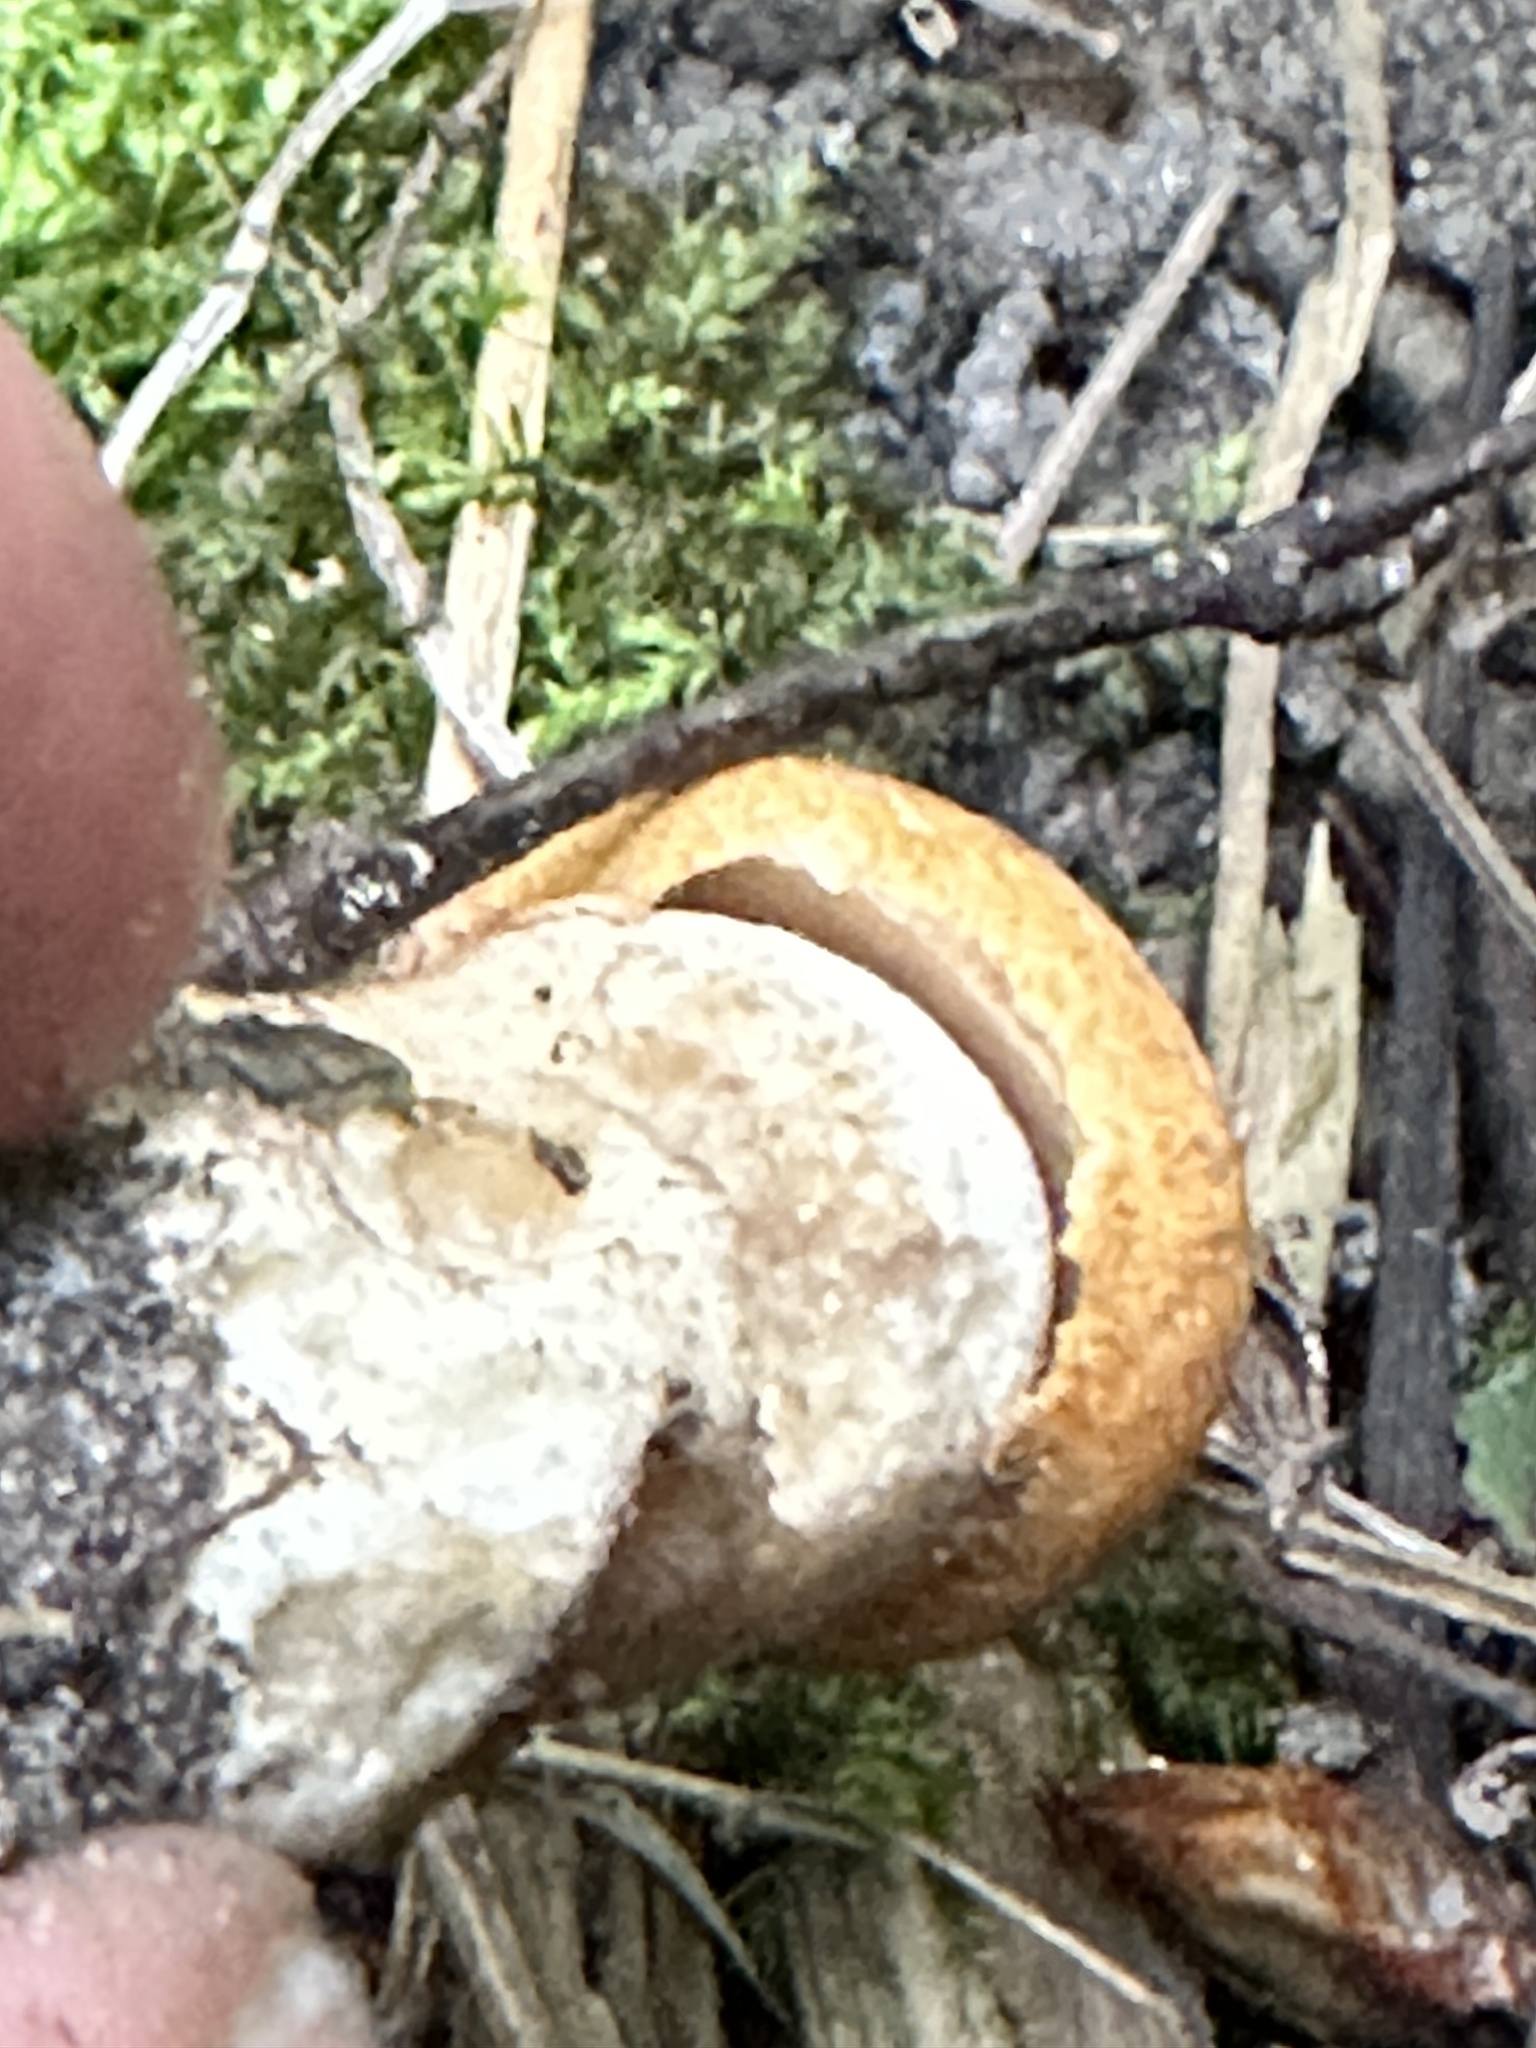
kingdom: Fungi
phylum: Basidiomycota
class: Agaricomycetes
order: Boletales
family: Boletaceae
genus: Leccinum
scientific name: Leccinum insigne
